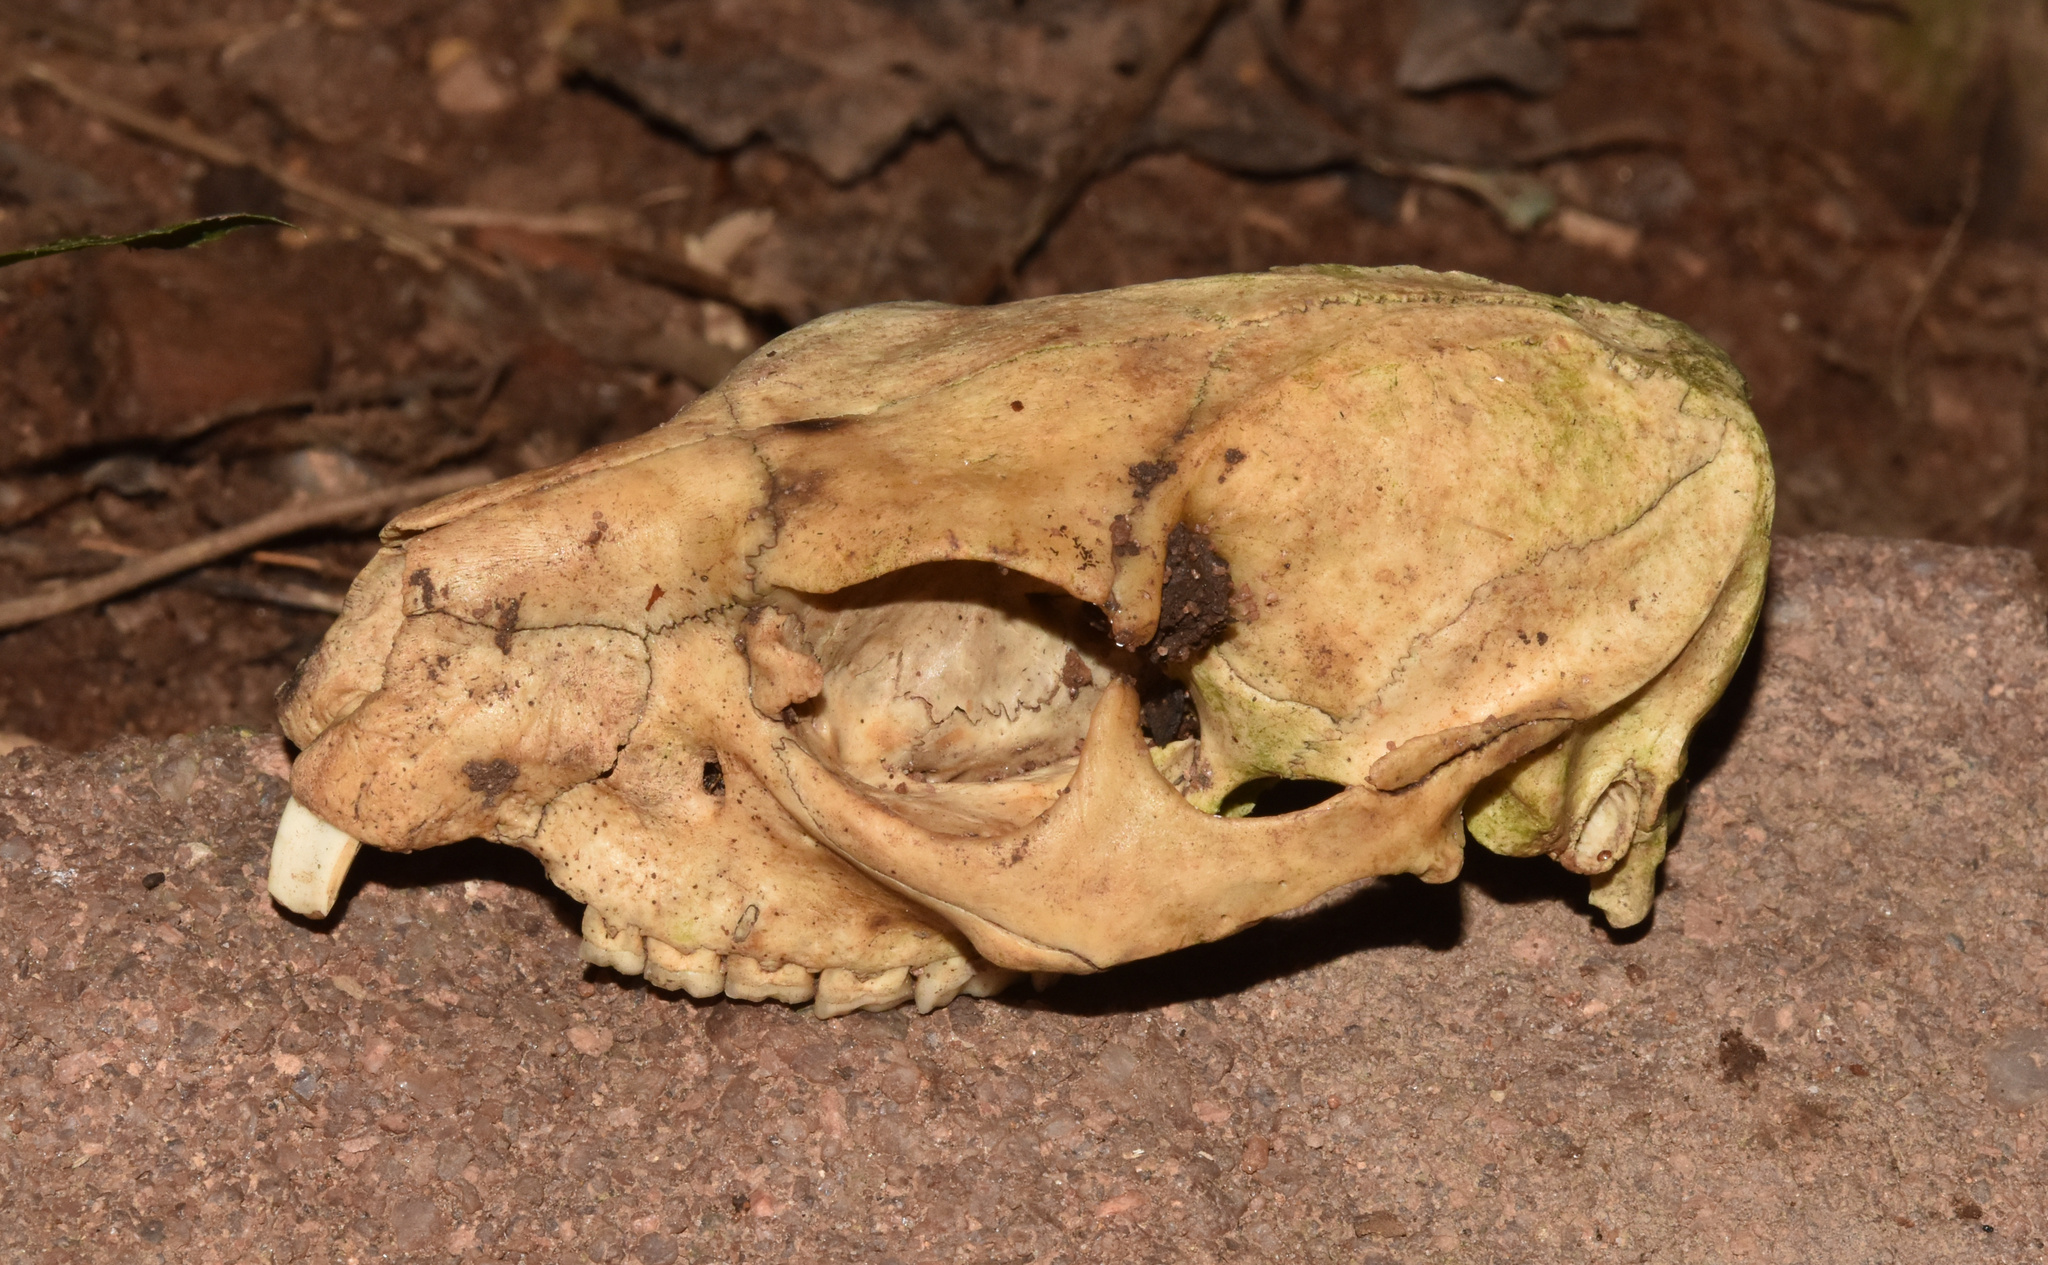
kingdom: Animalia
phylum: Chordata
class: Mammalia
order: Hyracoidea
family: Procaviidae
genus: Procavia
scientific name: Procavia capensis
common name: Rock hyrax
